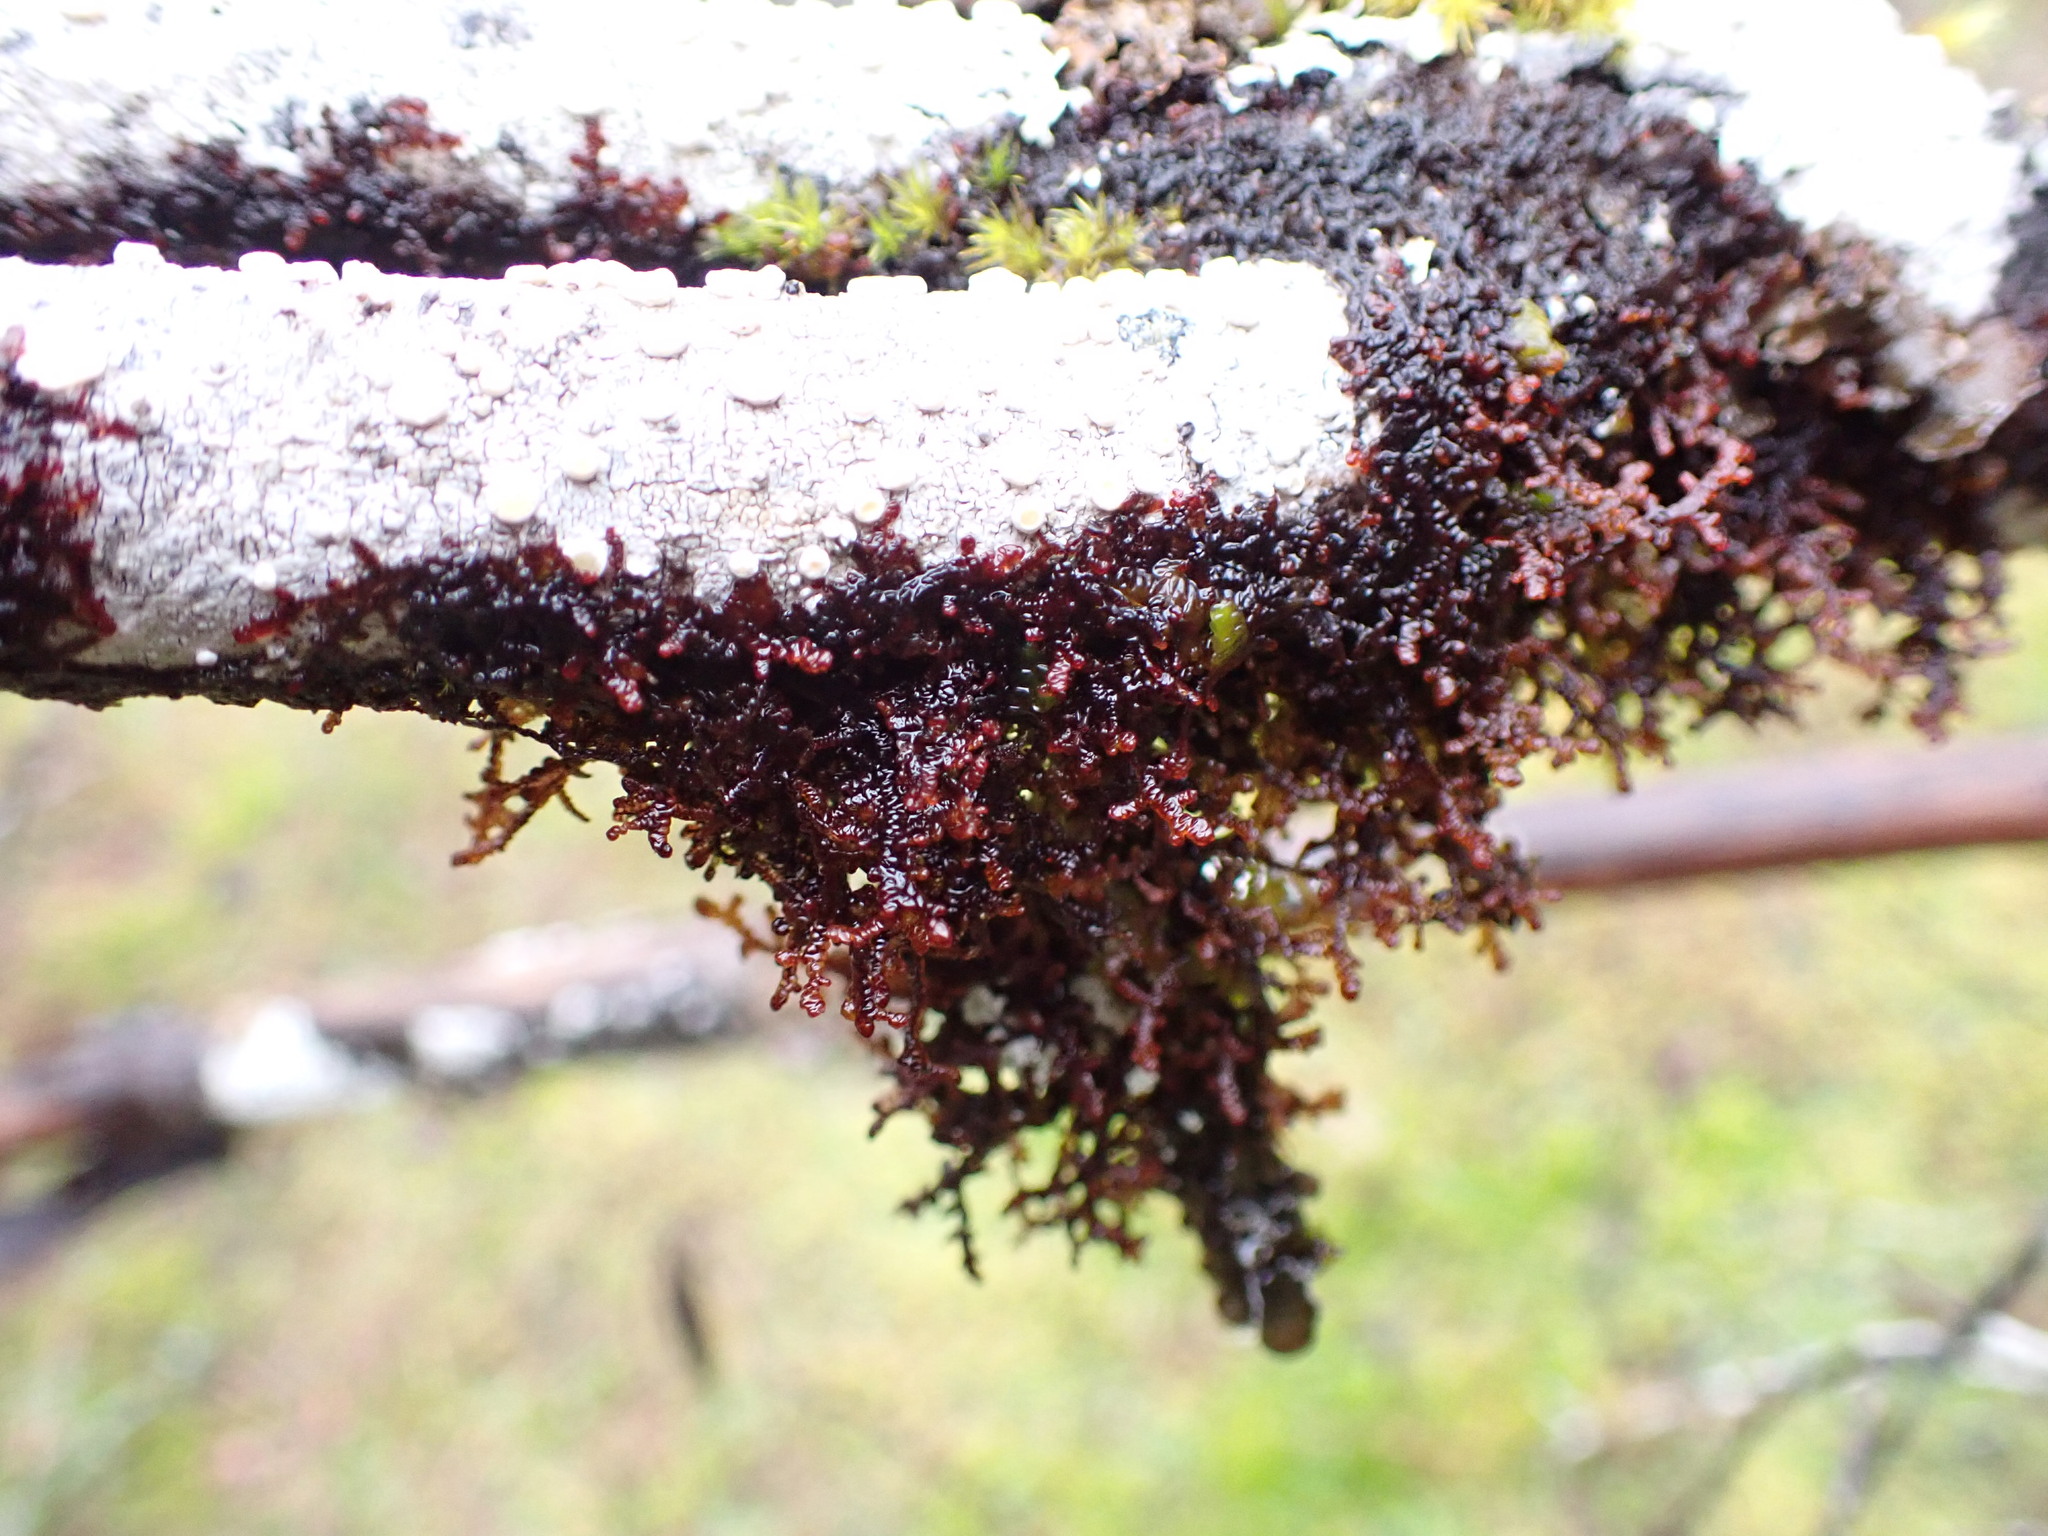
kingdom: Plantae
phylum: Marchantiophyta
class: Jungermanniopsida
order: Porellales
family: Frullaniaceae
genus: Frullania
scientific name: Frullania nisquallensis
